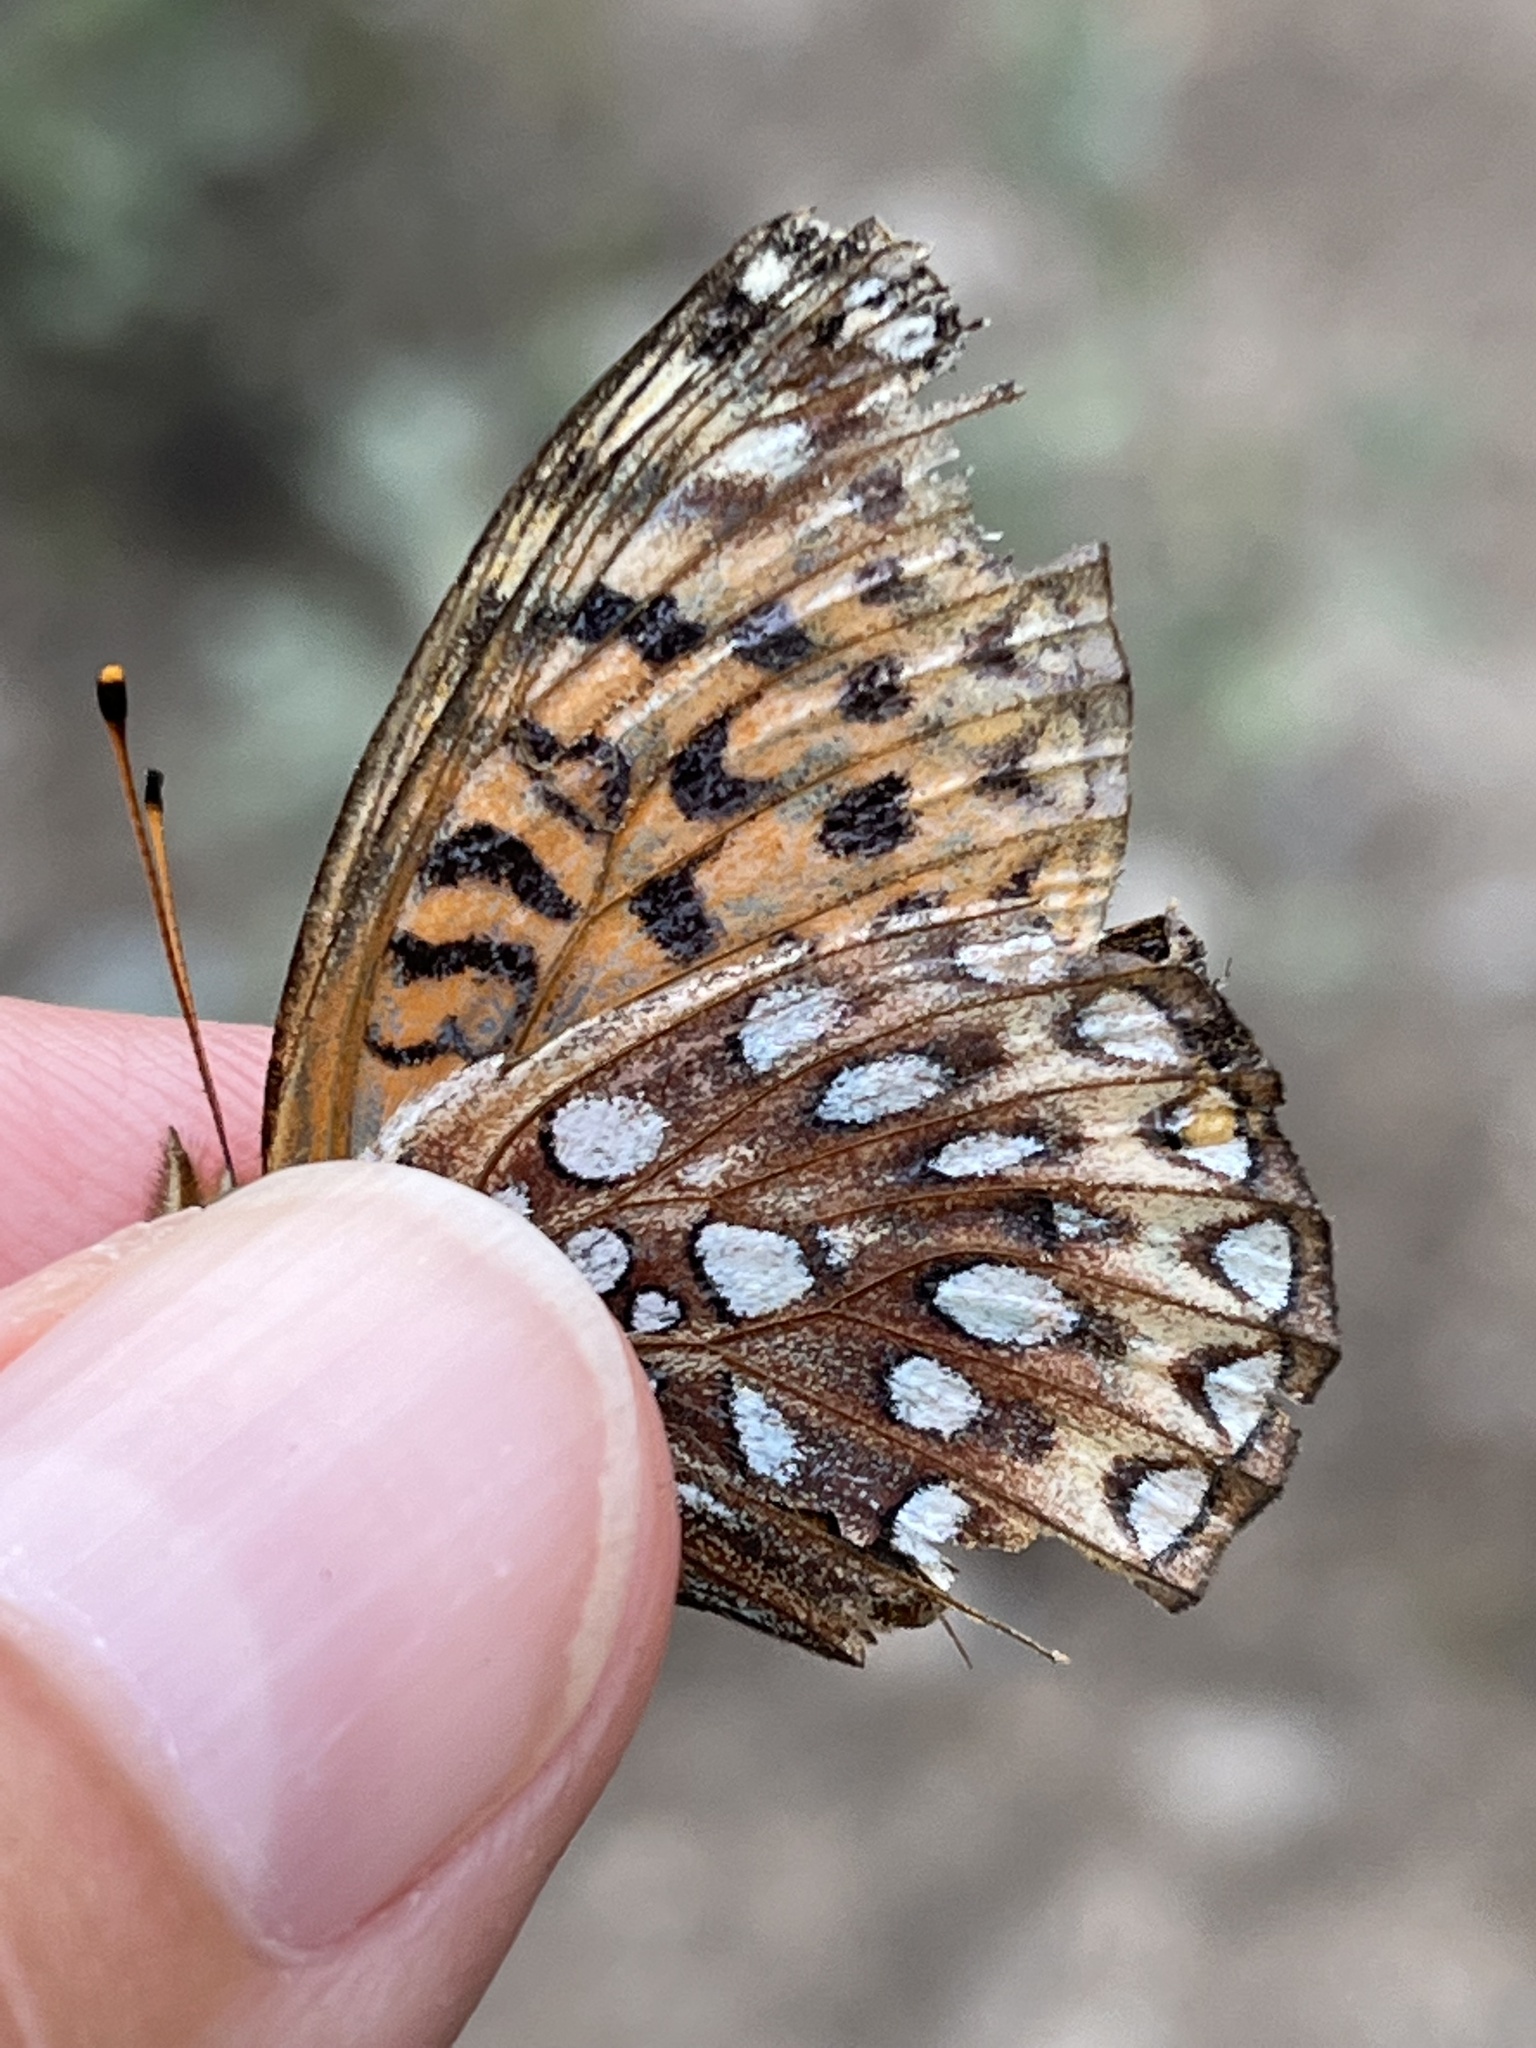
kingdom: Animalia
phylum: Arthropoda
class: Insecta
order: Lepidoptera
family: Nymphalidae
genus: Speyeria
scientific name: Speyeria atlantis
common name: Atlantis fritillary
